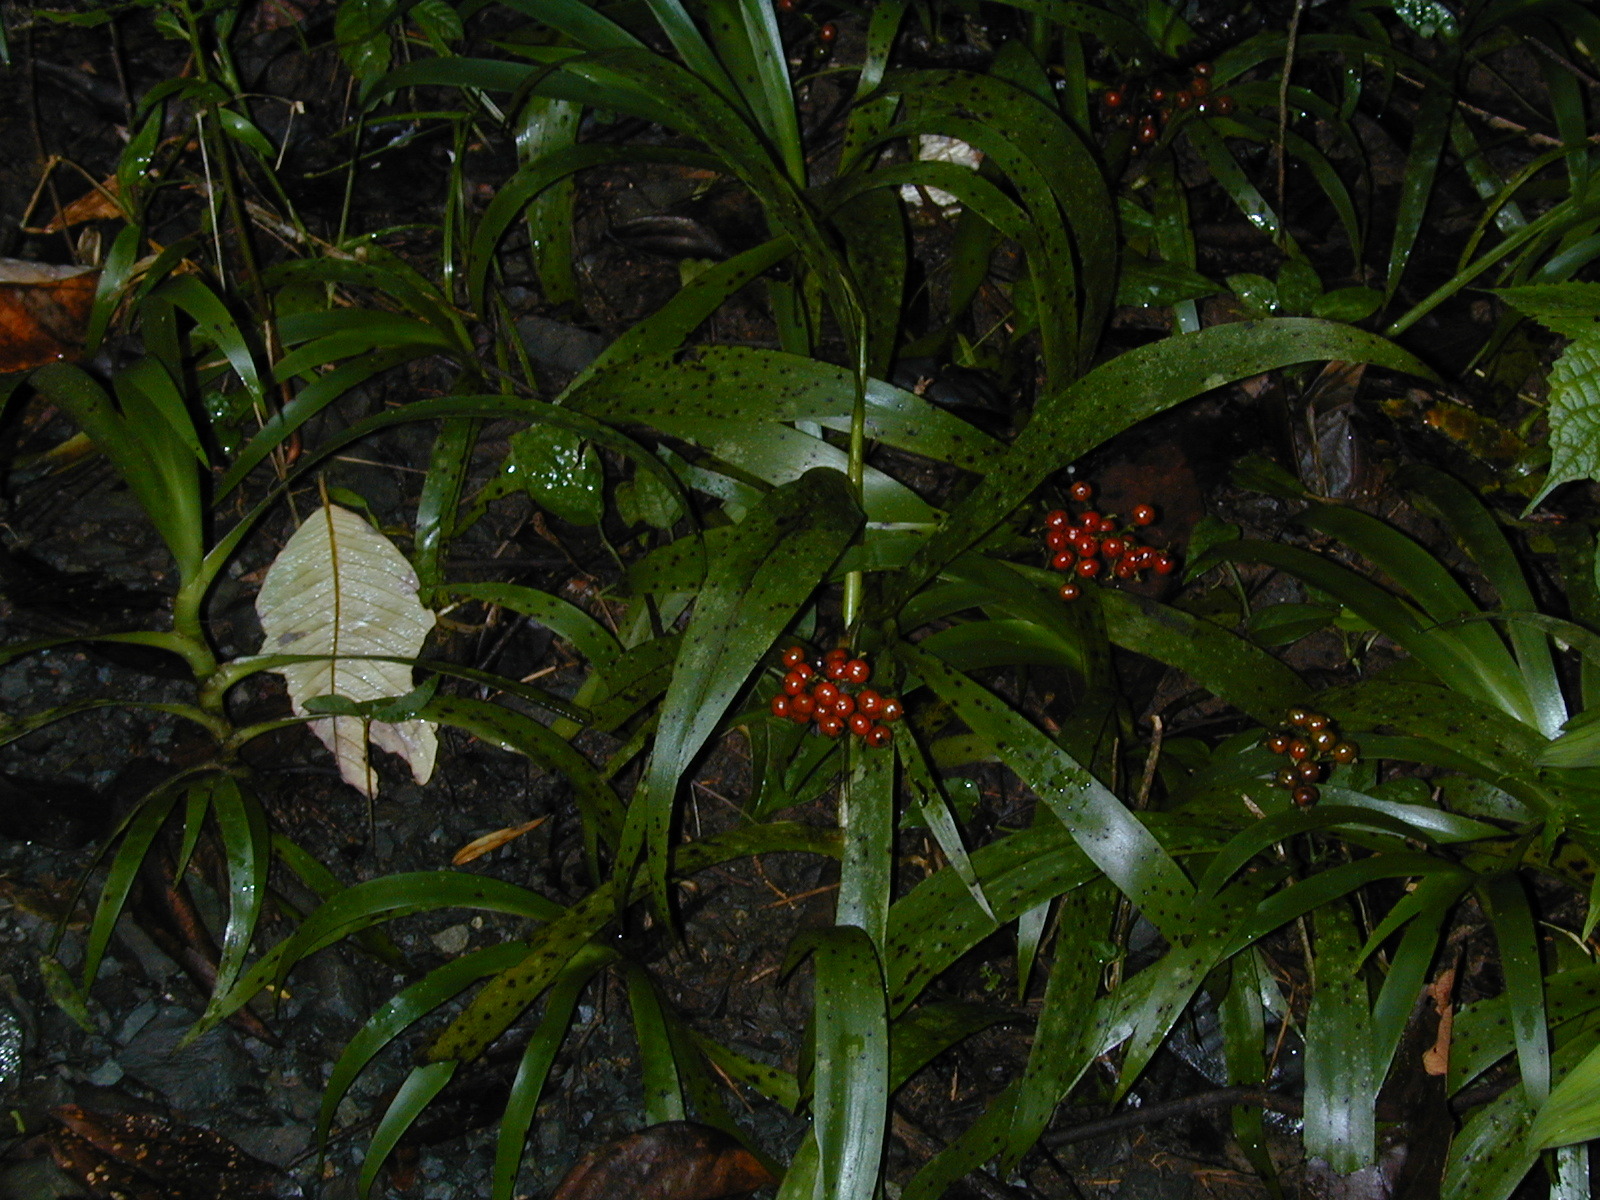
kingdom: Plantae
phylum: Tracheophyta
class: Liliopsida
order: Commelinales
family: Haemodoraceae
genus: Xiphidium
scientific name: Xiphidium caeruleum
